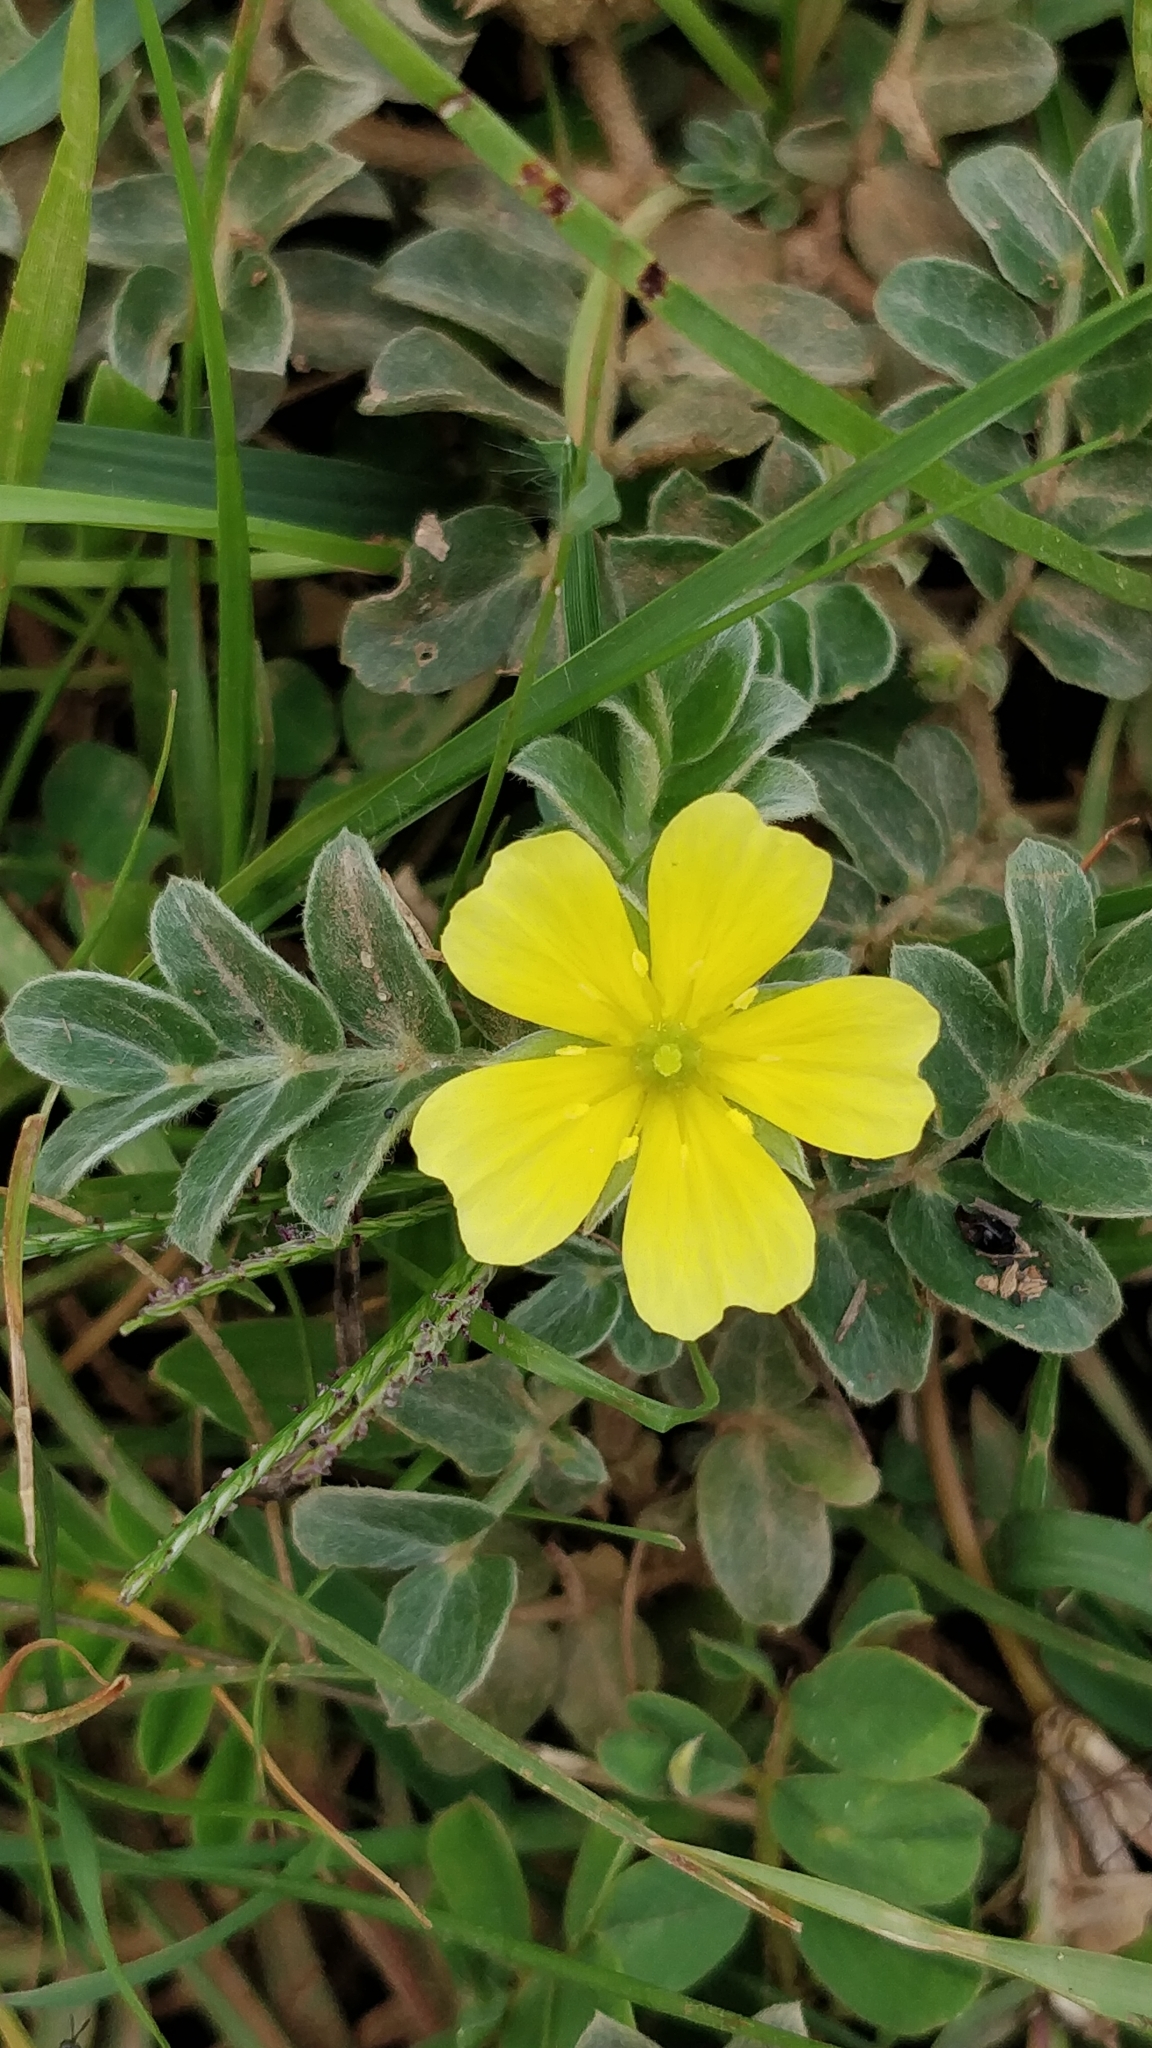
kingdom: Plantae
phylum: Tracheophyta
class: Magnoliopsida
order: Zygophyllales
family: Zygophyllaceae
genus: Tribulus
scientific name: Tribulus terrestris
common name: Puncturevine
